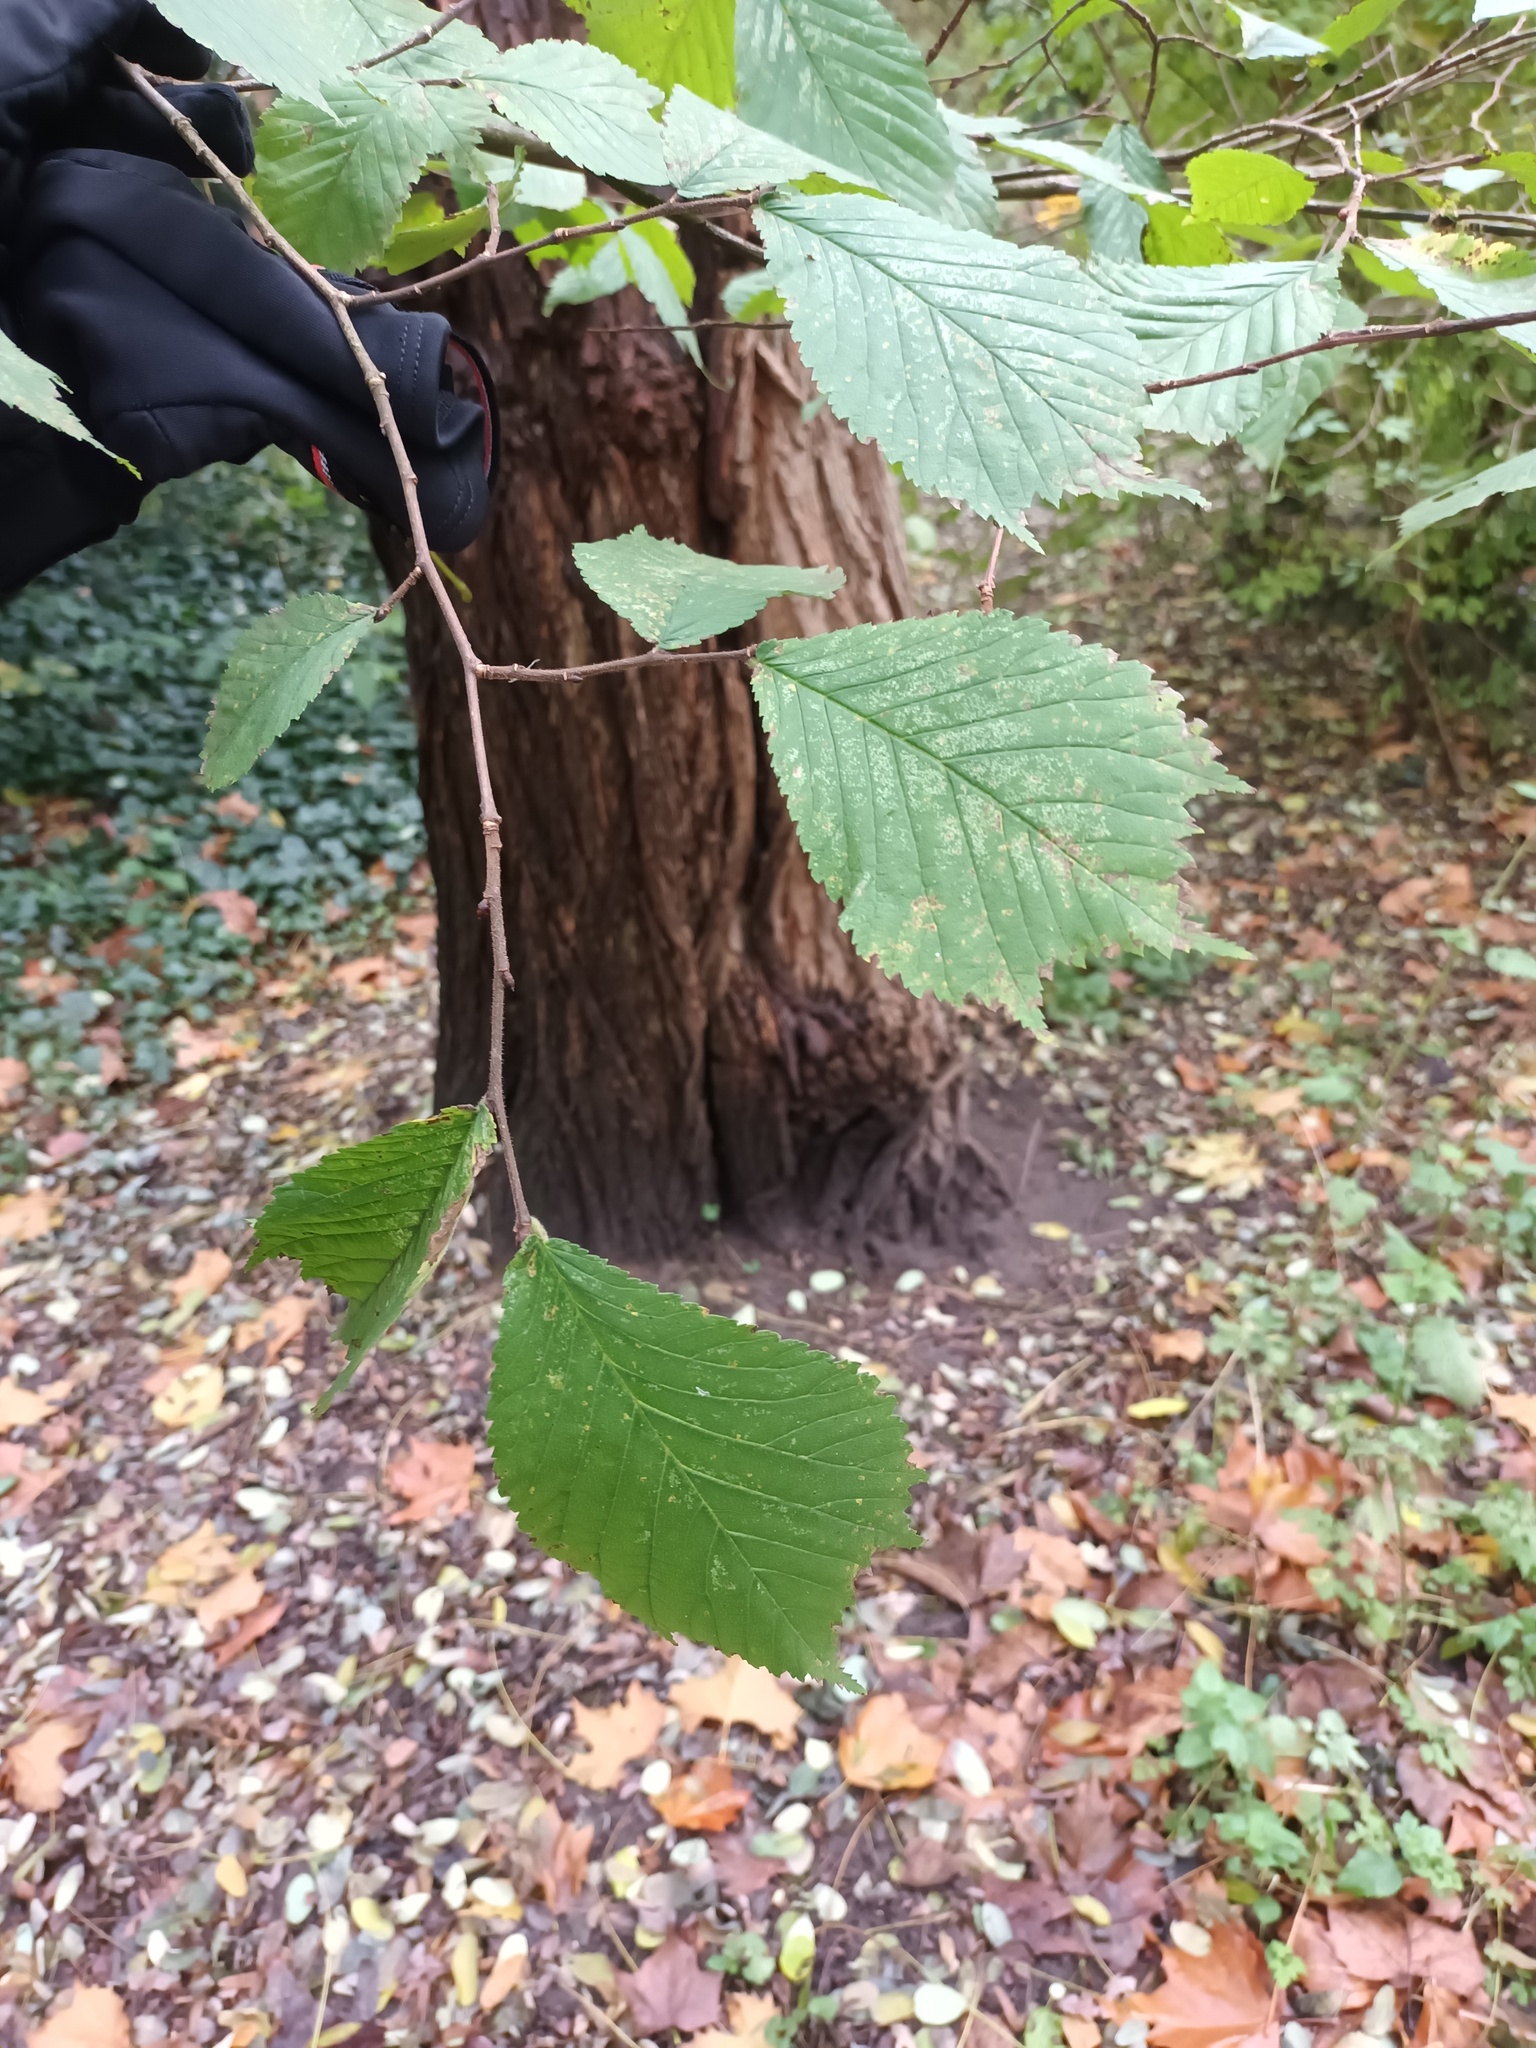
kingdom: Plantae
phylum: Tracheophyta
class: Magnoliopsida
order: Rosales
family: Ulmaceae
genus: Ulmus
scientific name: Ulmus glabra
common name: Wych elm
